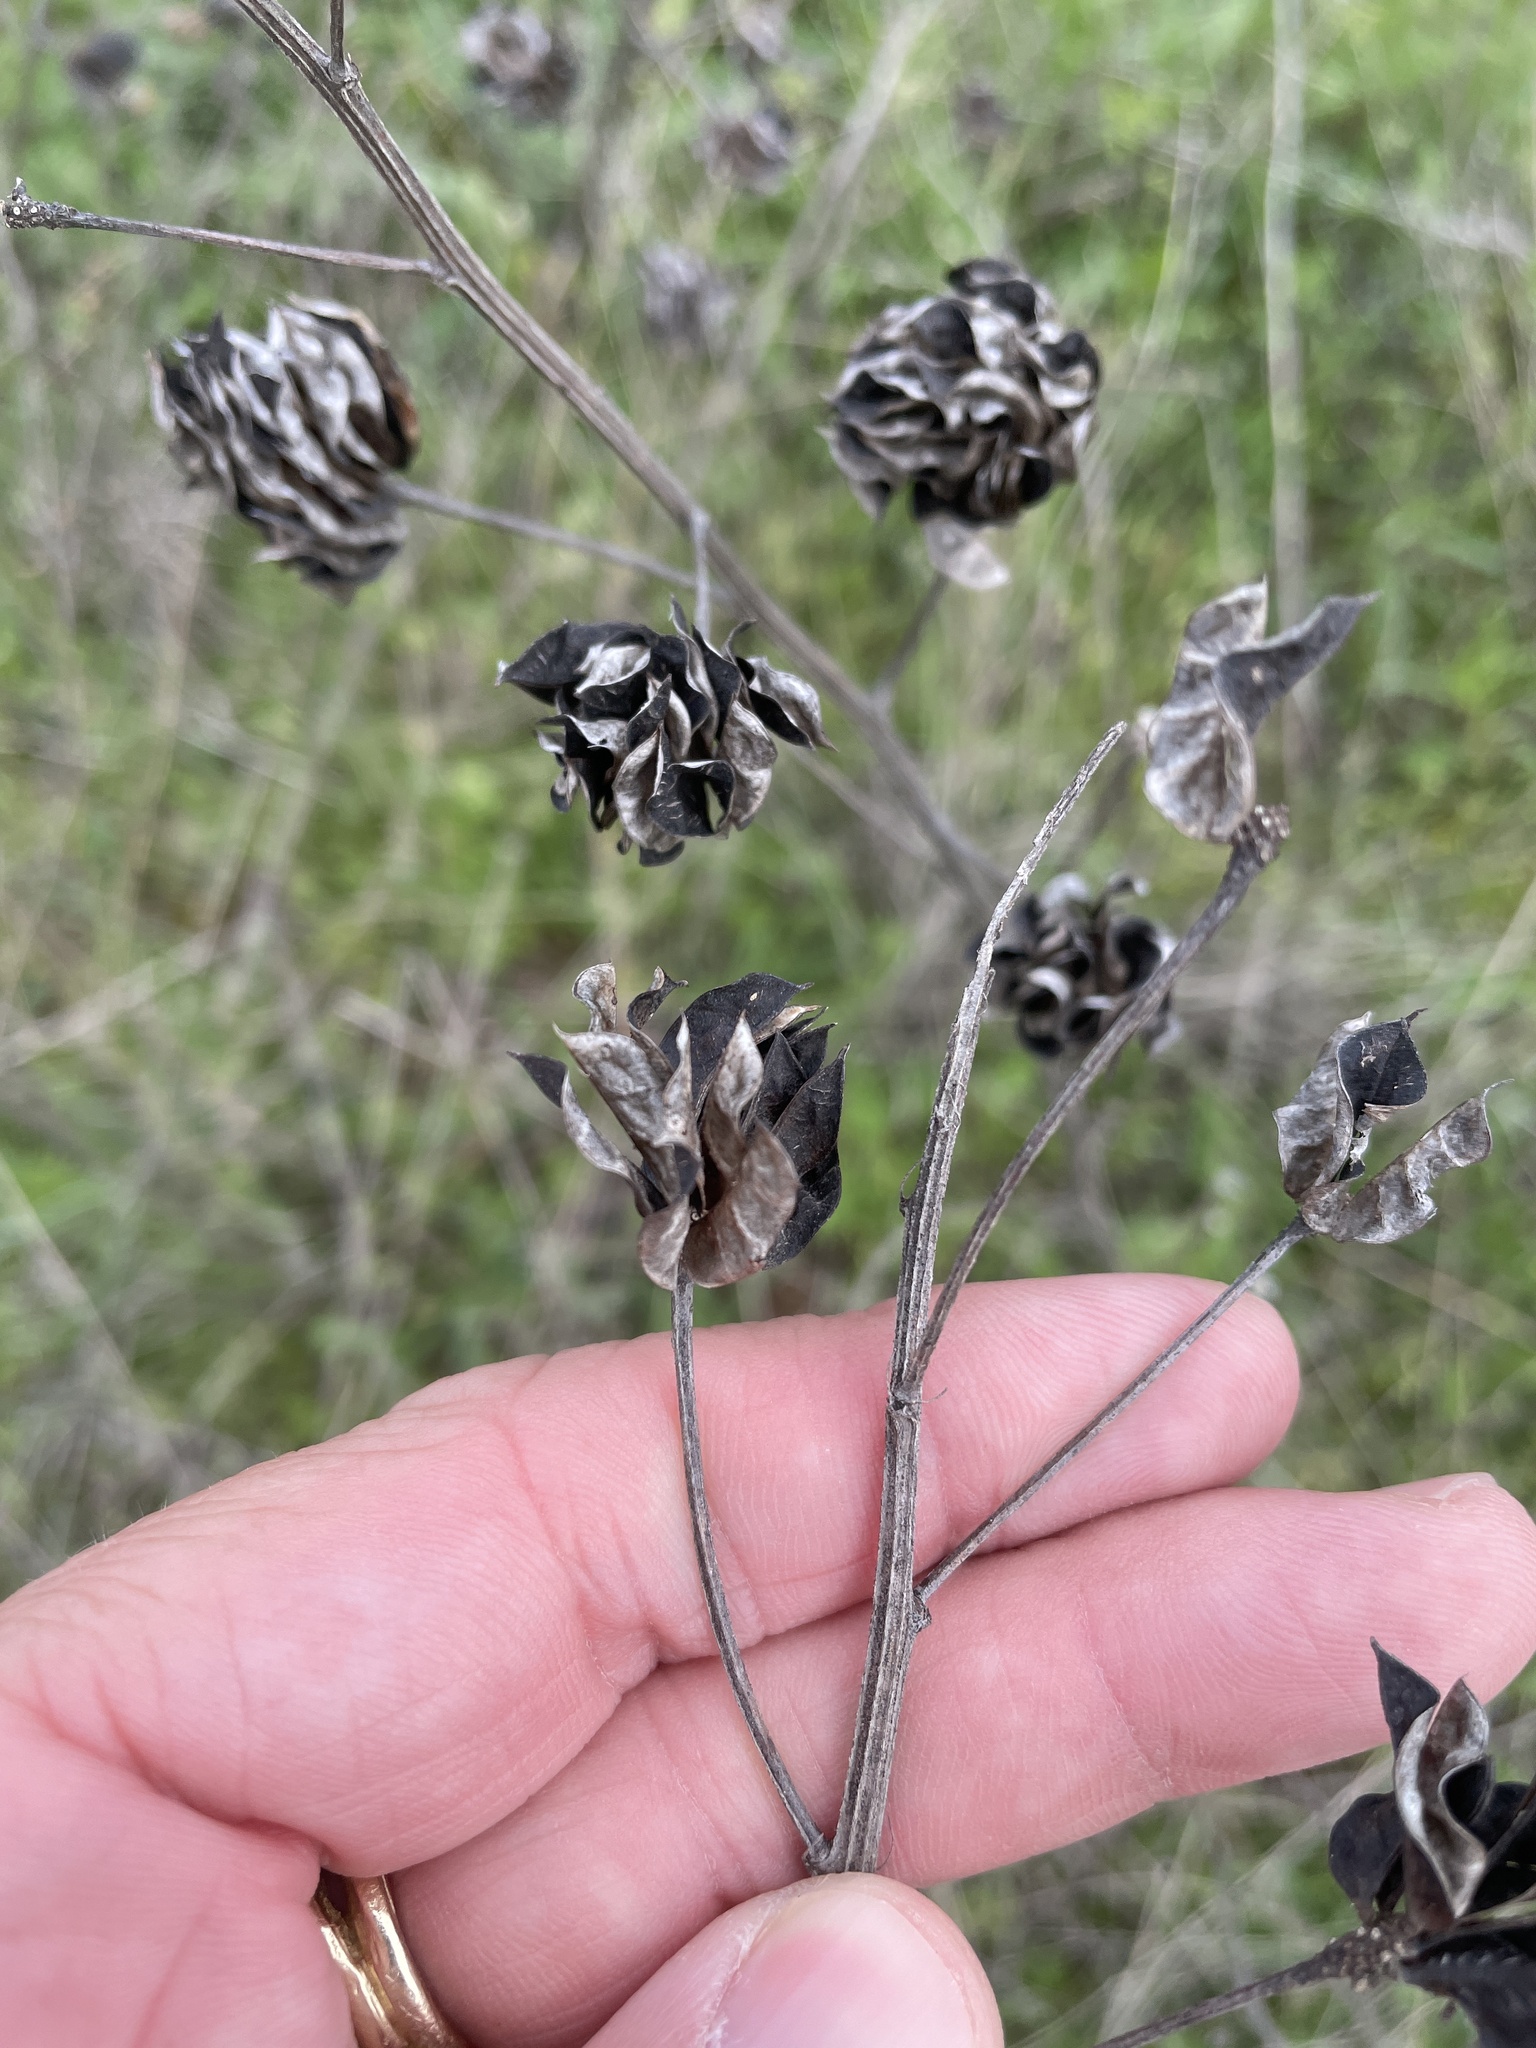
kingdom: Plantae
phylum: Tracheophyta
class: Magnoliopsida
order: Fabales
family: Fabaceae
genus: Desmanthus
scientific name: Desmanthus illinoensis
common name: Illinois bundle-flower
